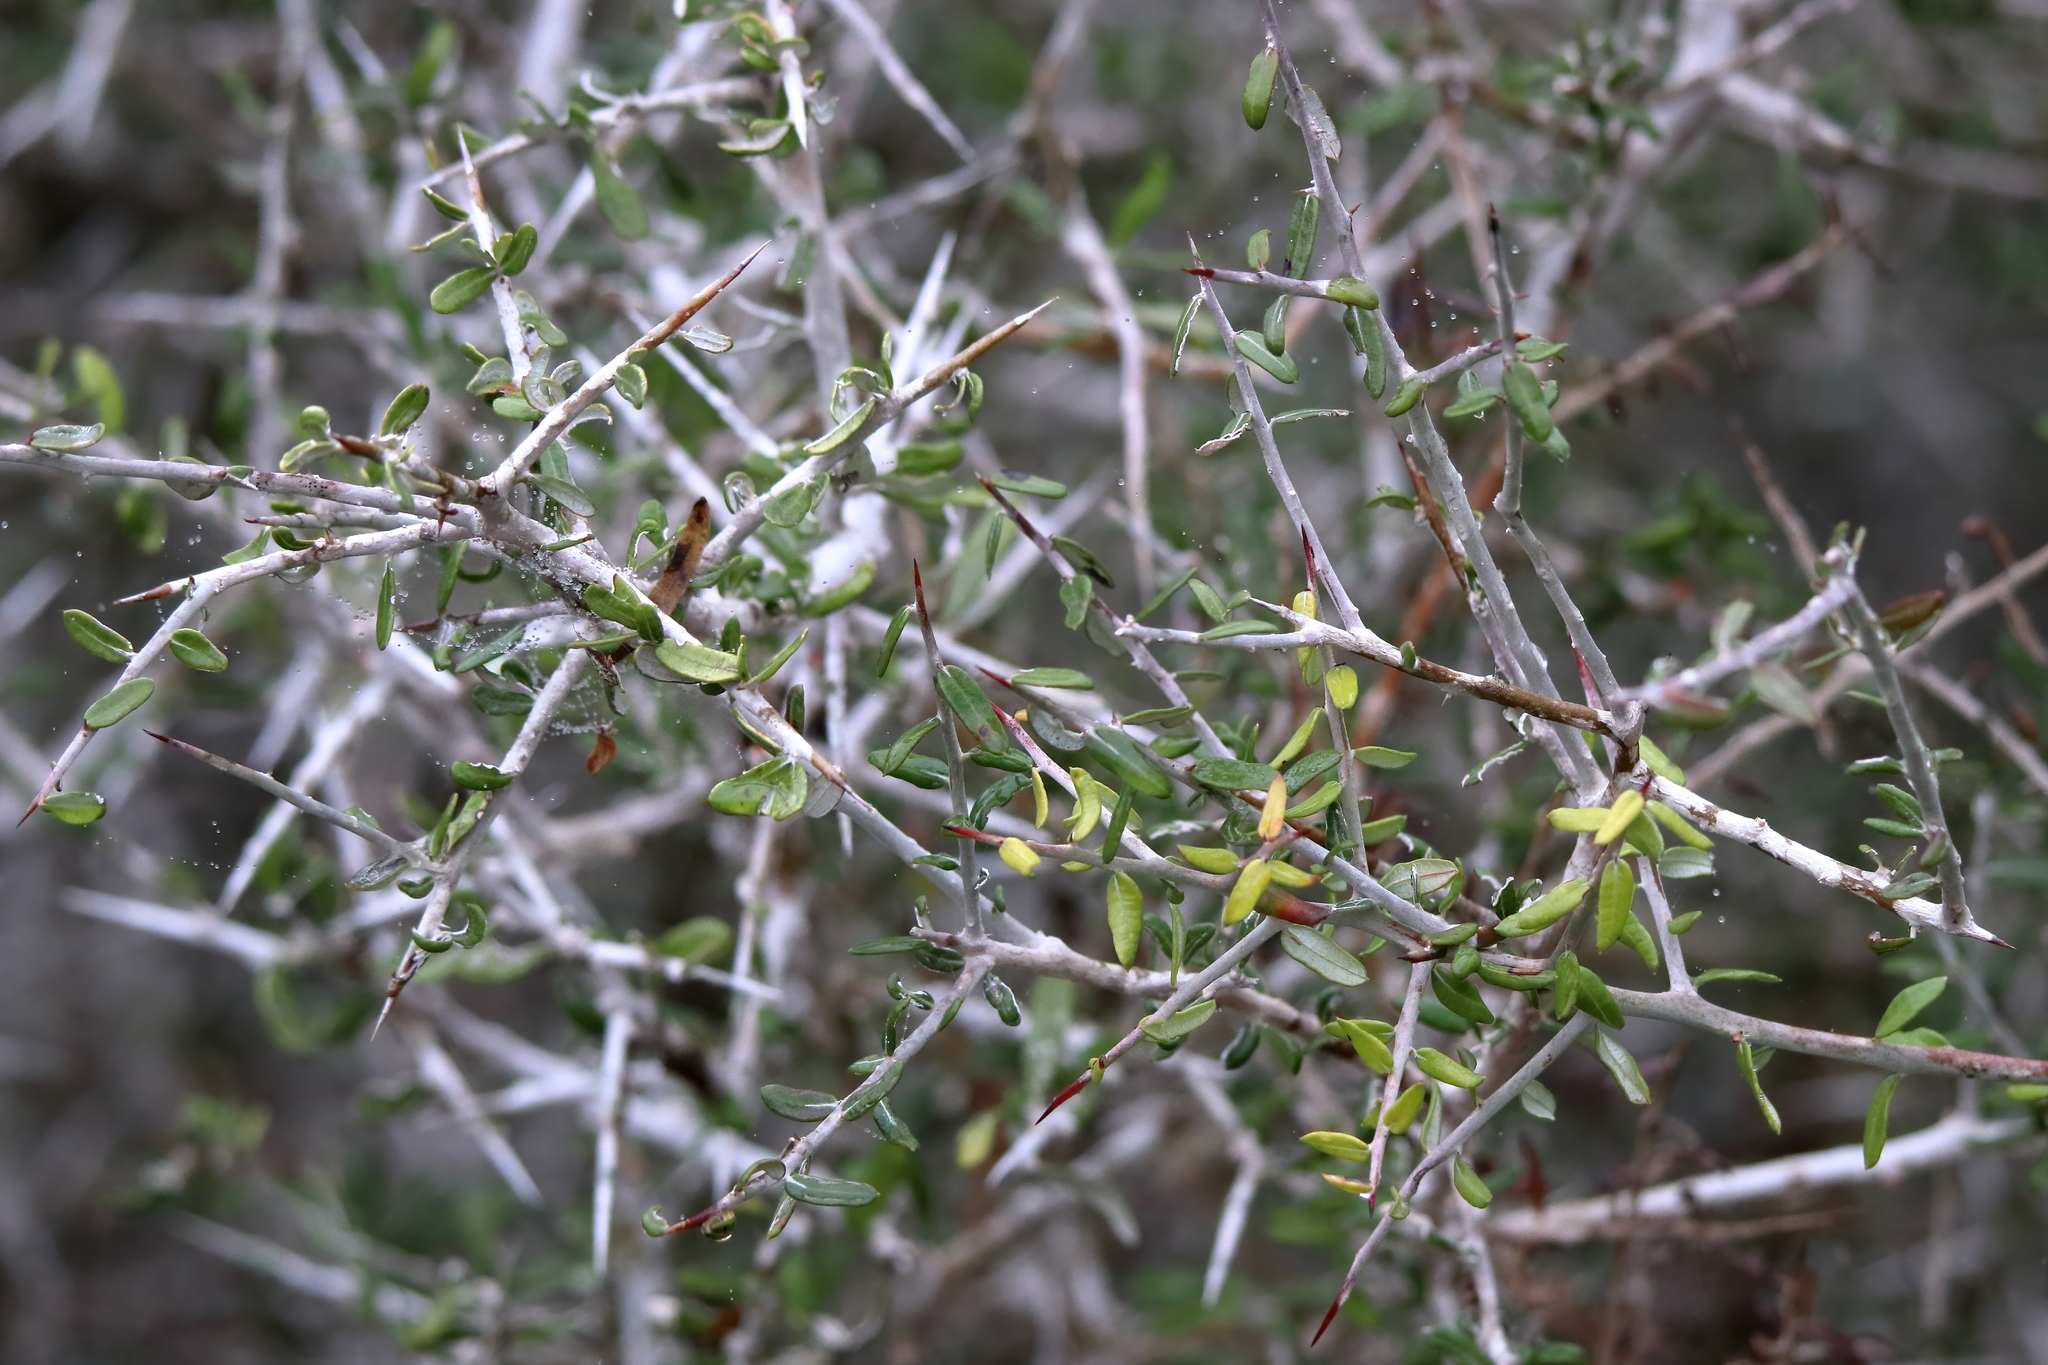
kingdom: Plantae
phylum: Tracheophyta
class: Magnoliopsida
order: Sapindales
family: Simaroubaceae
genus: Castela
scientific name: Castela erecta
